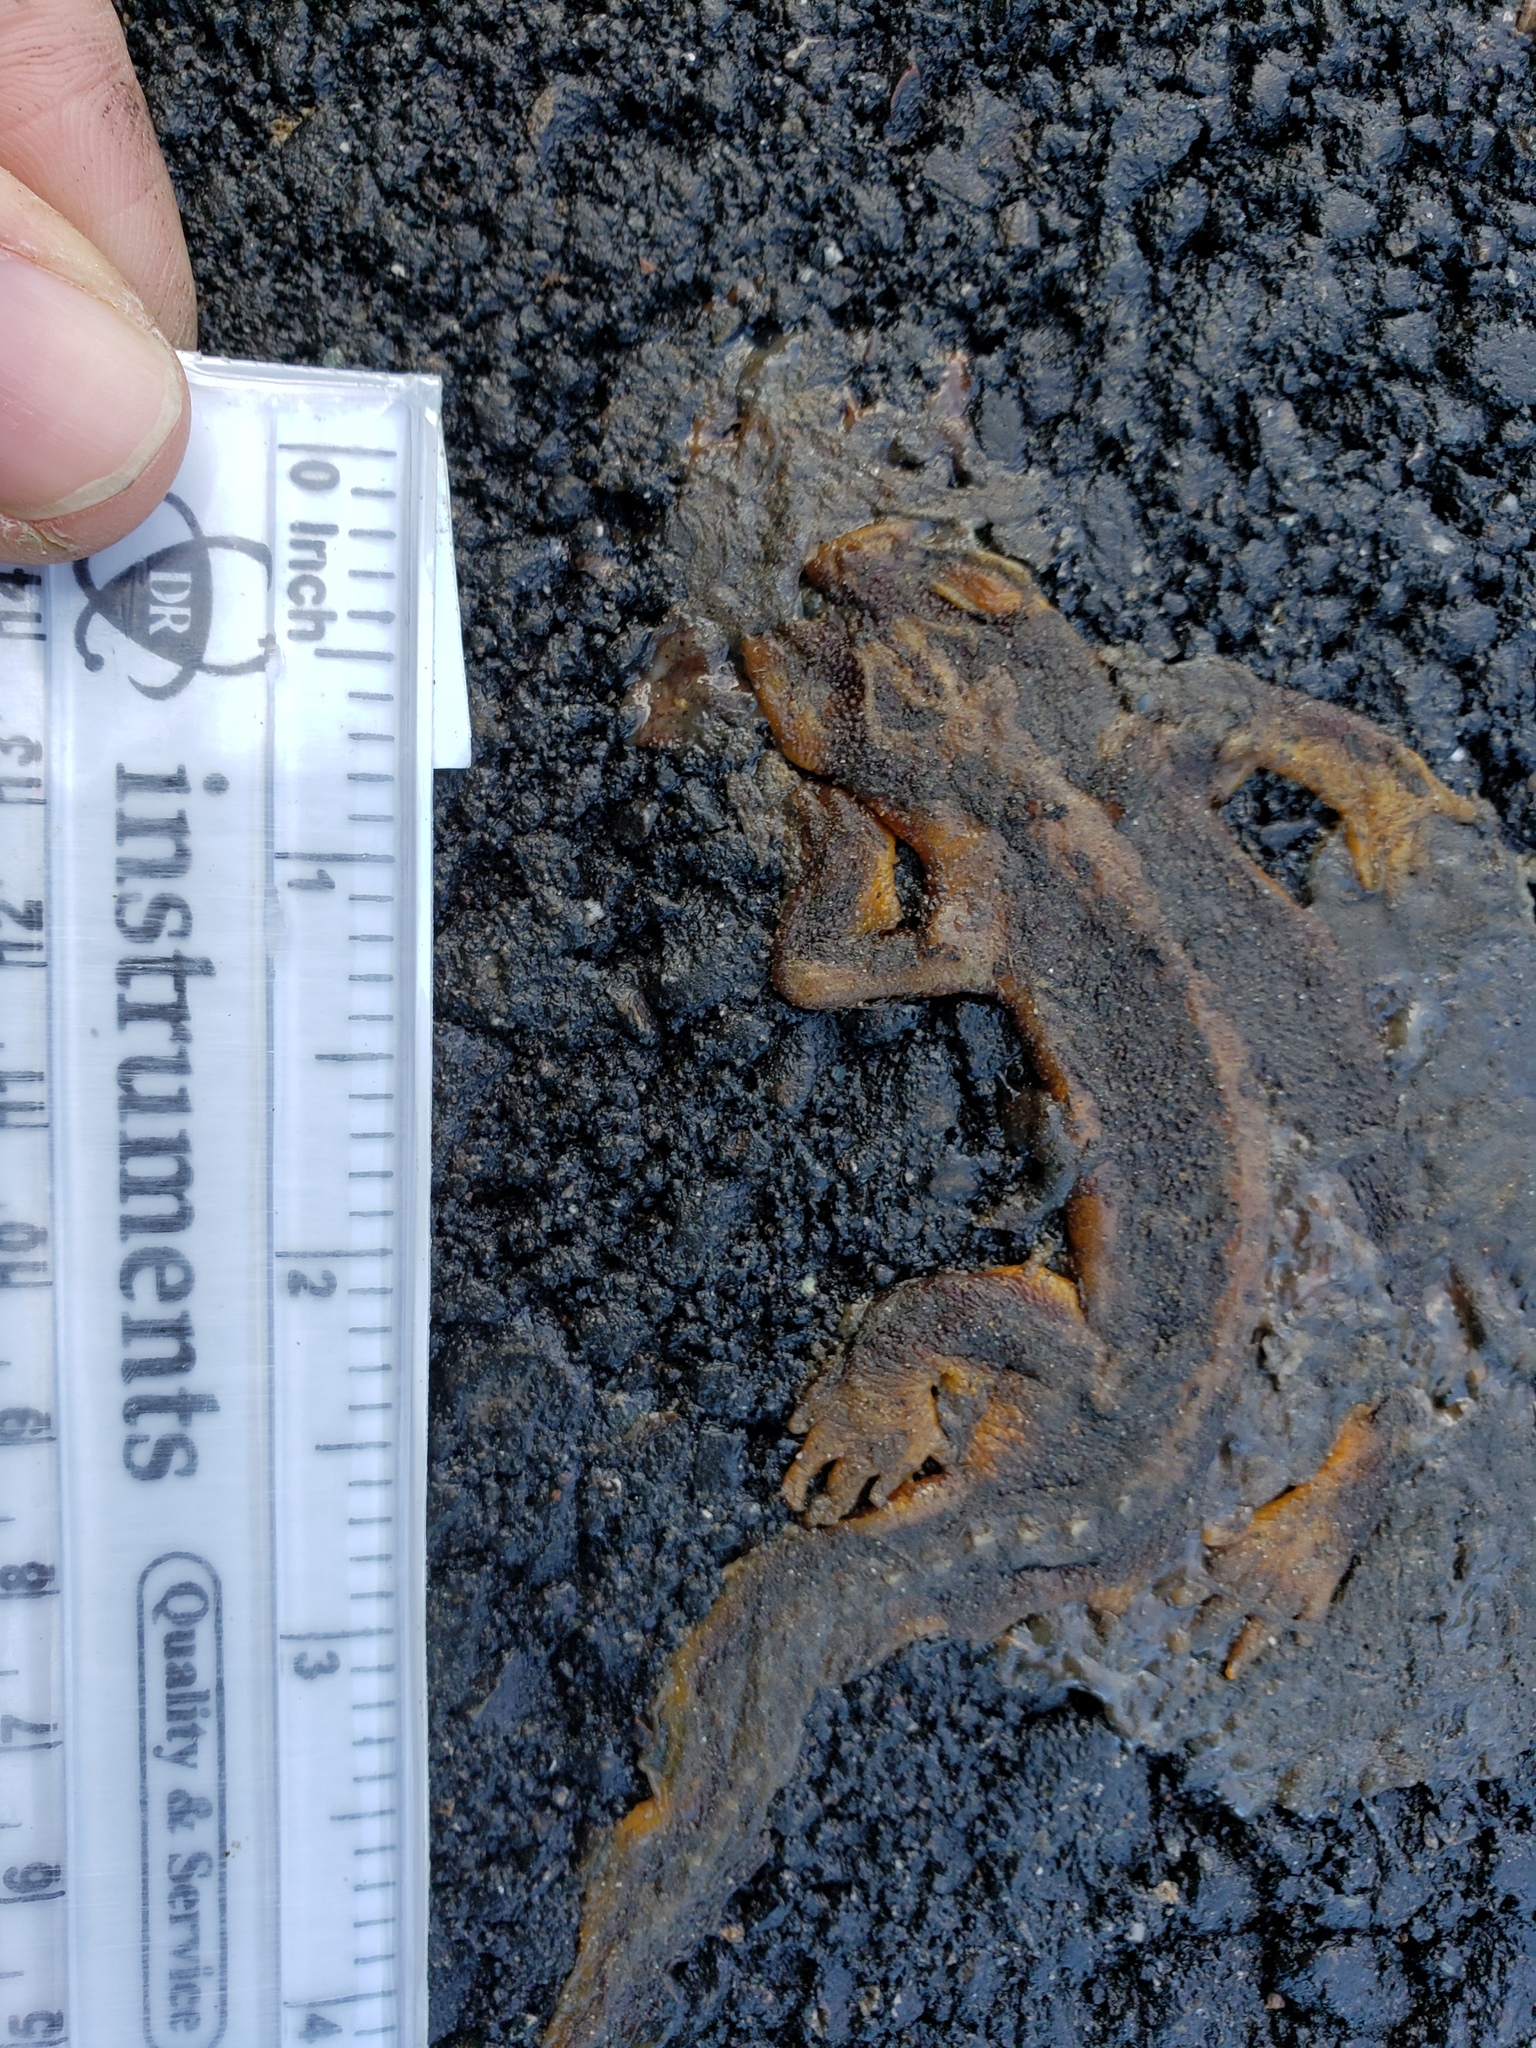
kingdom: Animalia
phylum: Chordata
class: Amphibia
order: Caudata
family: Salamandridae
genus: Taricha
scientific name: Taricha
